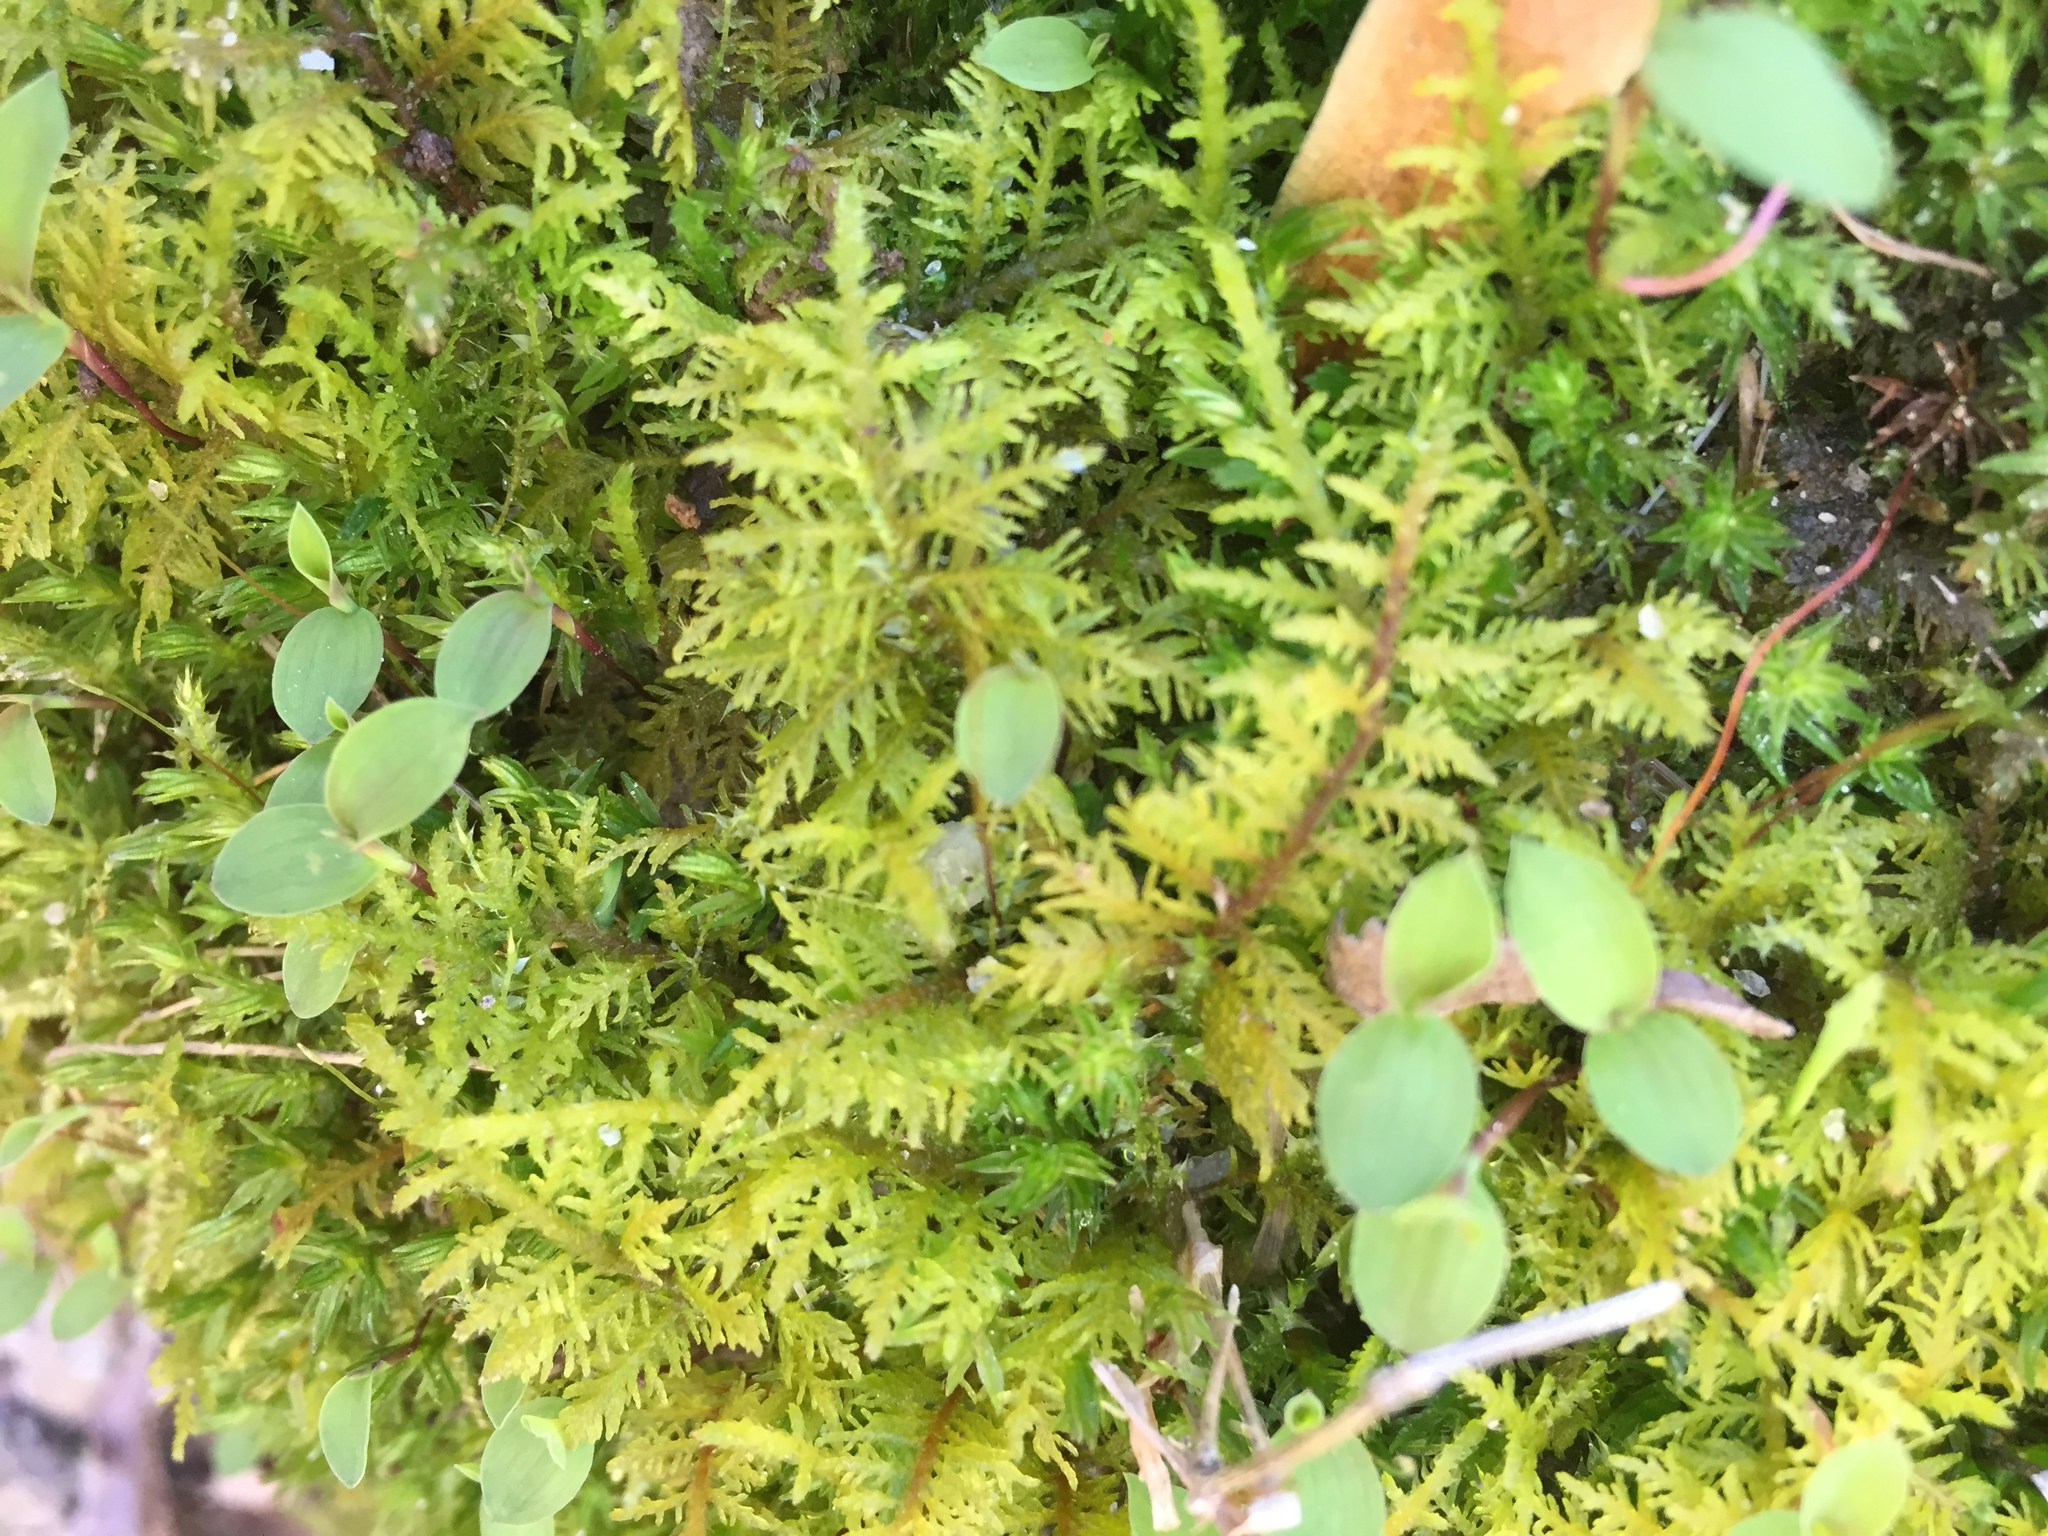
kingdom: Plantae
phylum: Bryophyta
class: Bryopsida
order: Hypnales
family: Thuidiaceae
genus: Thuidium
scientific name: Thuidium recognitum
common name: Hook-leaved fern moss
